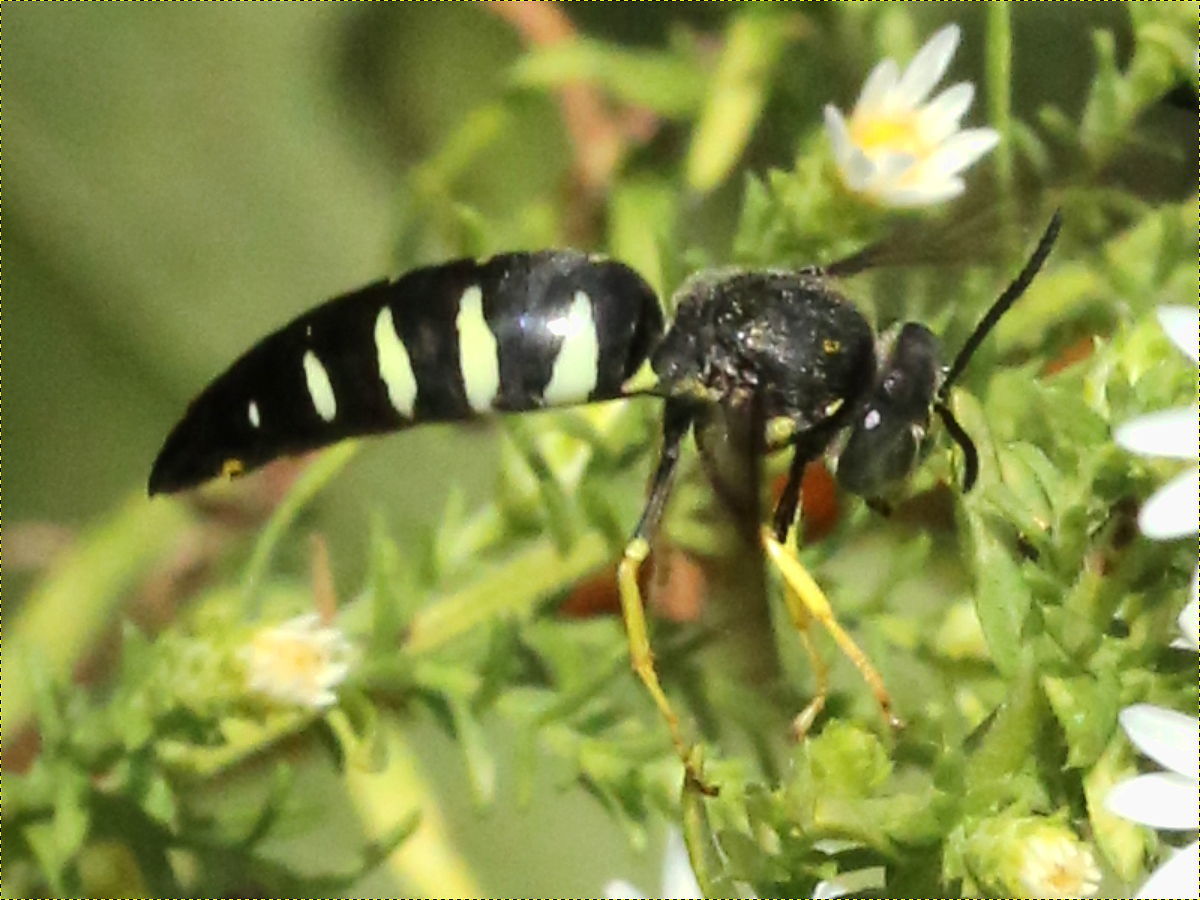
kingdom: Animalia
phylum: Arthropoda
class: Insecta
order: Hymenoptera
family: Crabronidae
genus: Bicyrtes
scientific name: Bicyrtes quadrifasciatus
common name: Four-banded stink bug hunter wasp
